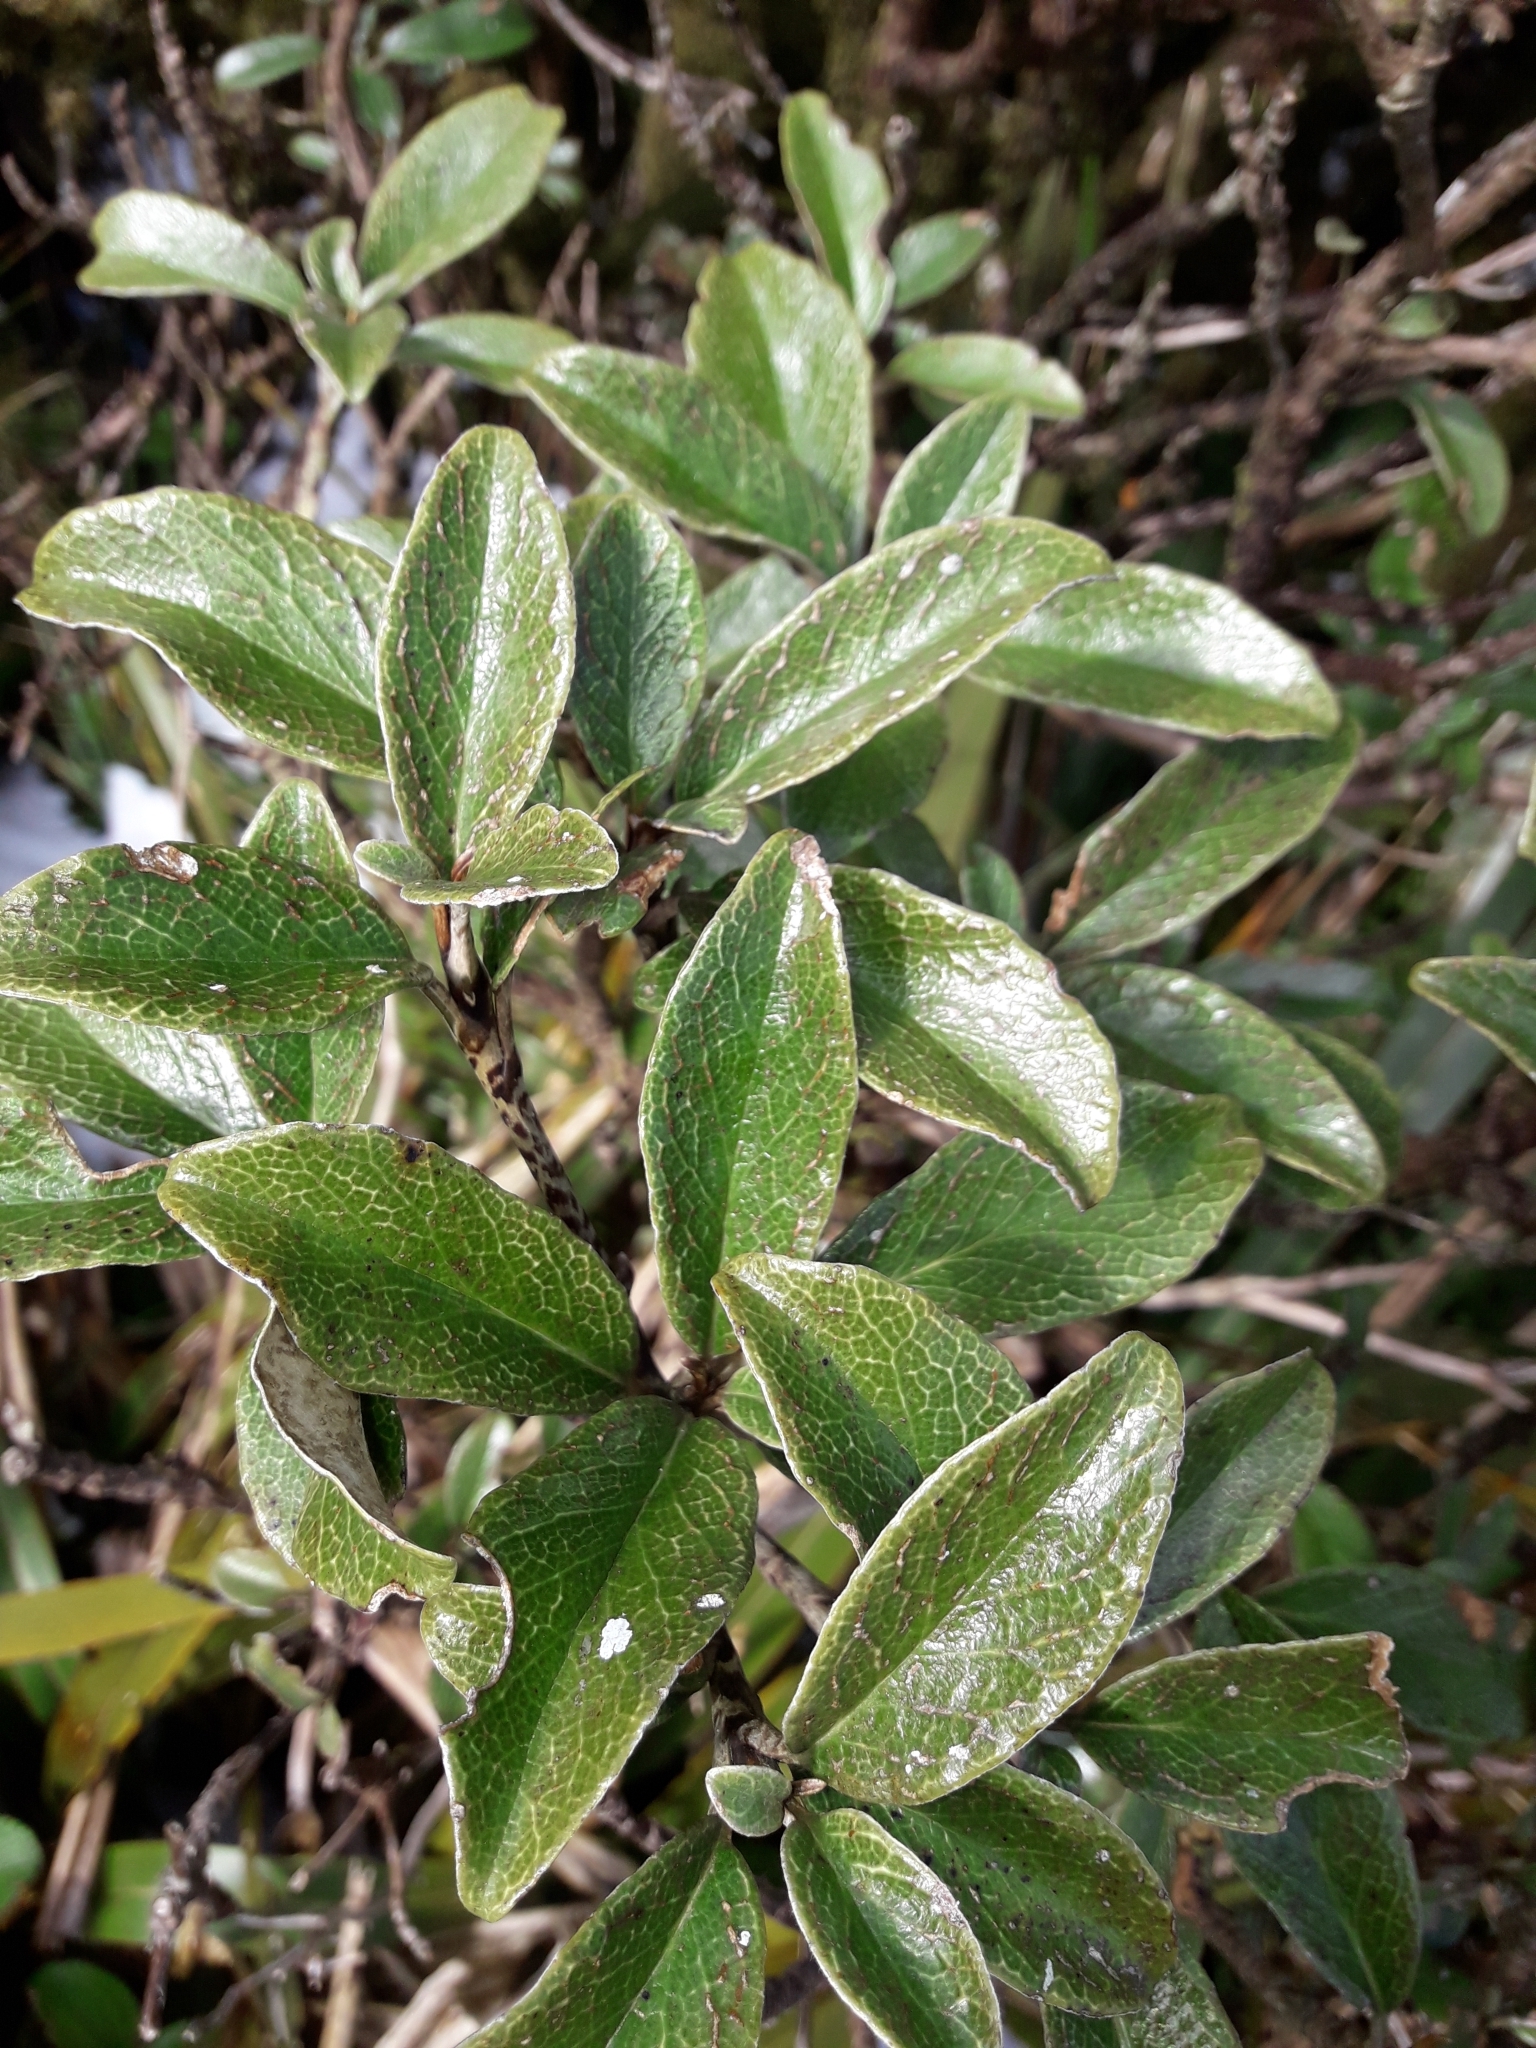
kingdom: Plantae
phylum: Tracheophyta
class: Magnoliopsida
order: Asterales
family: Asteraceae
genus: Brachyglottis
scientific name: Brachyglottis elaeagnifolia
